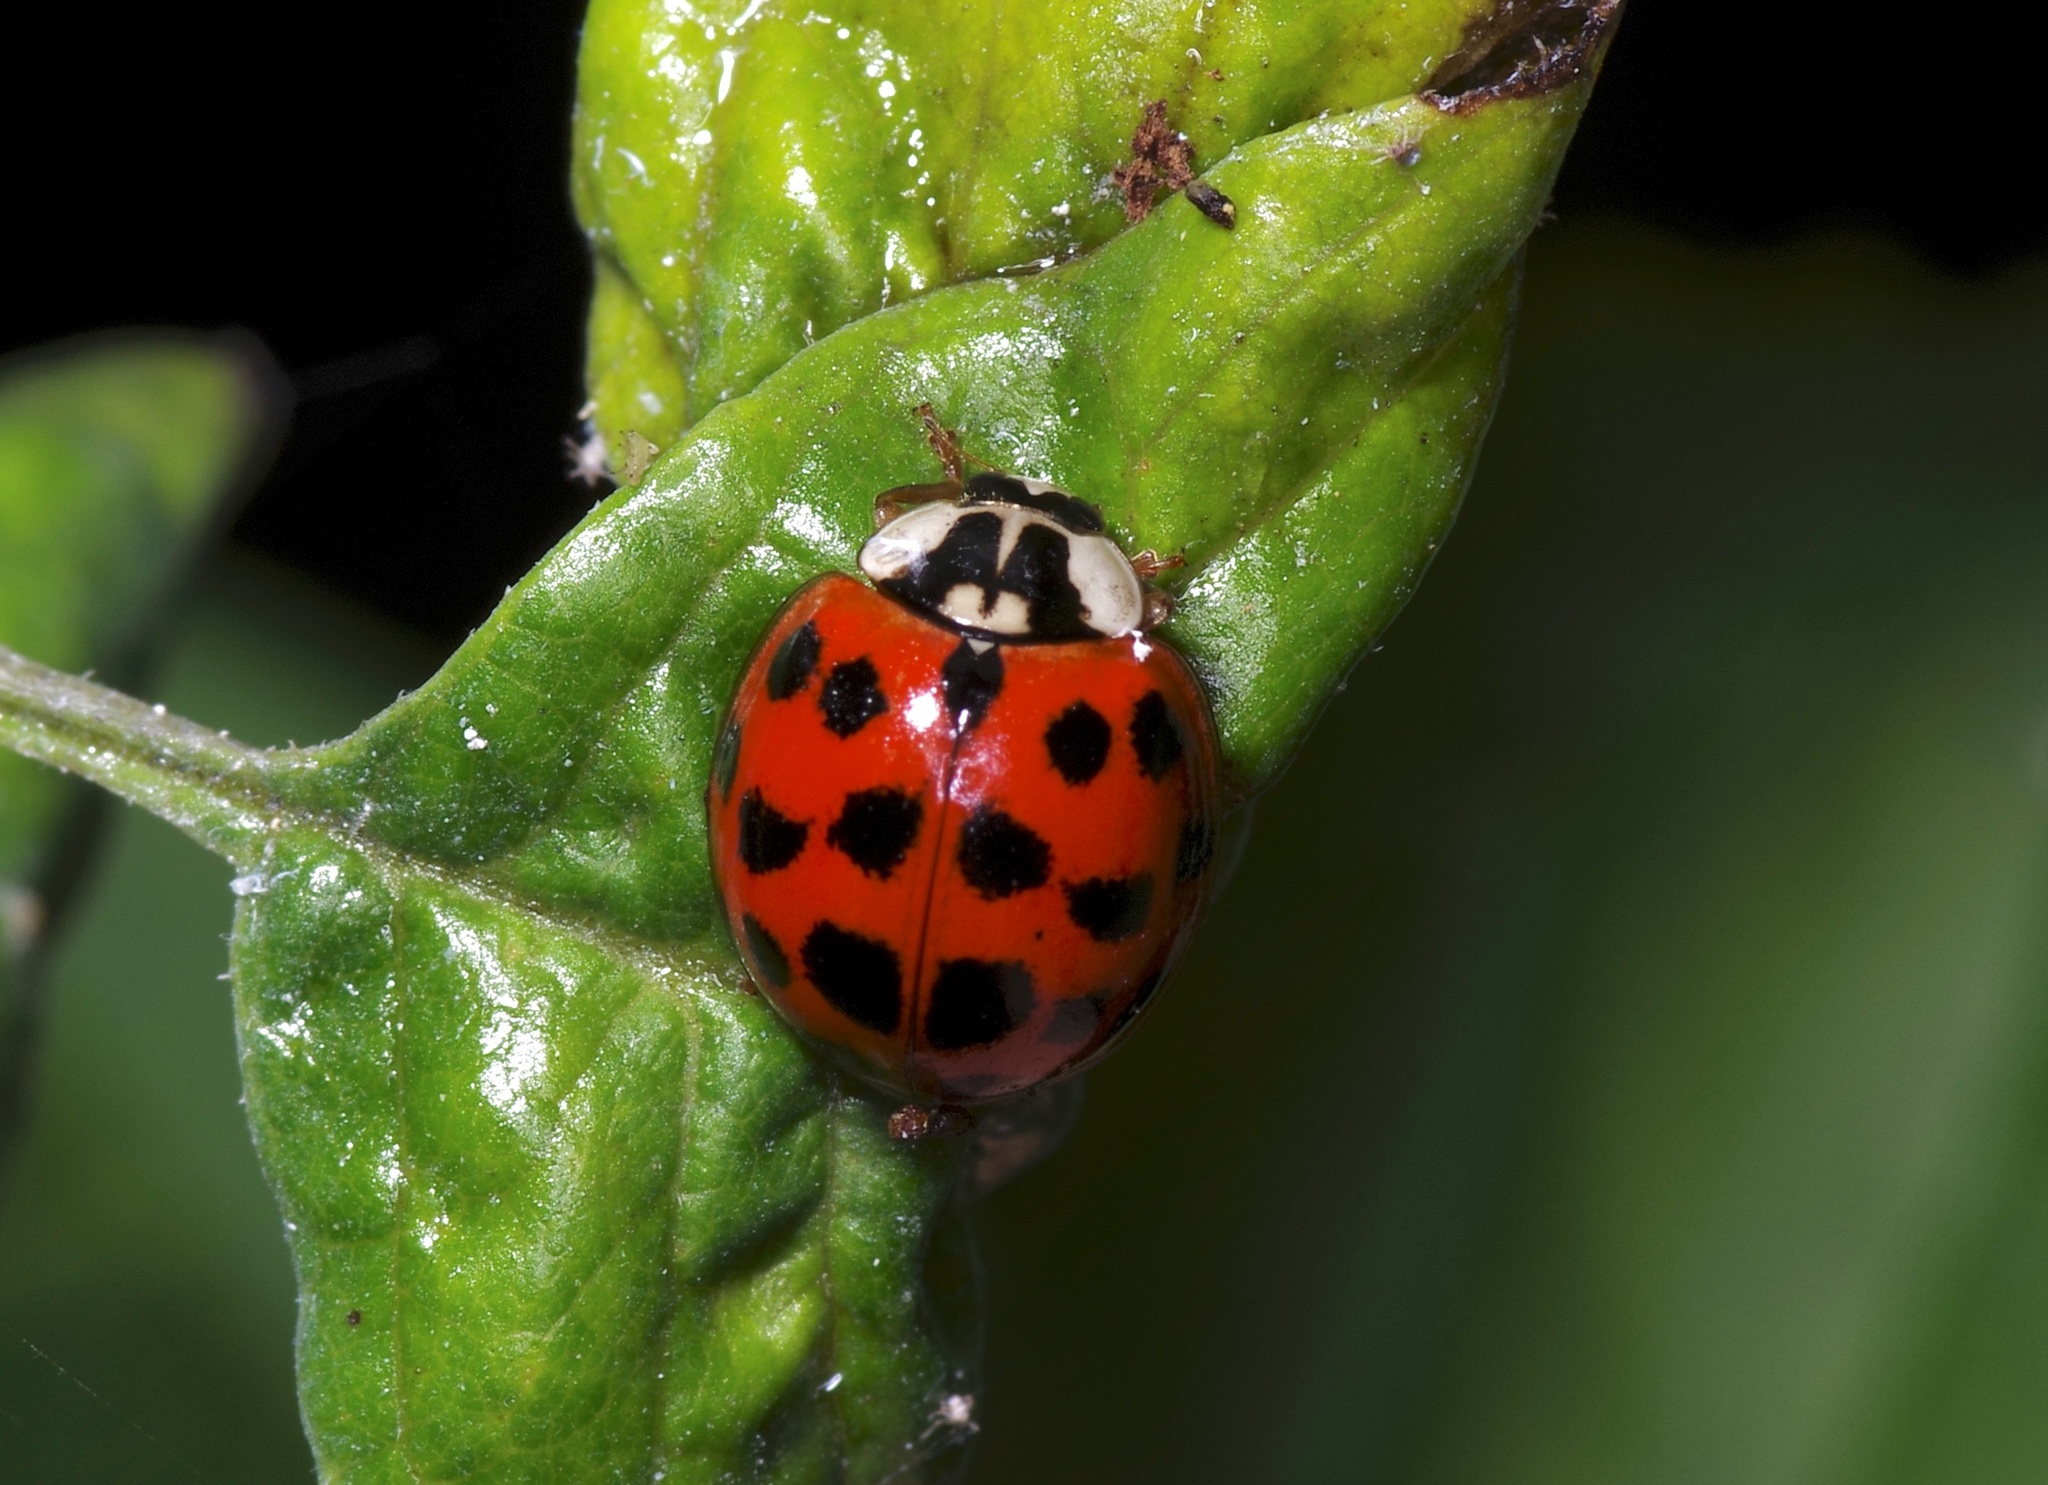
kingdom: Animalia
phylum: Arthropoda
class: Insecta
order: Coleoptera
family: Coccinellidae
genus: Harmonia
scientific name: Harmonia axyridis
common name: Harlequin ladybird
